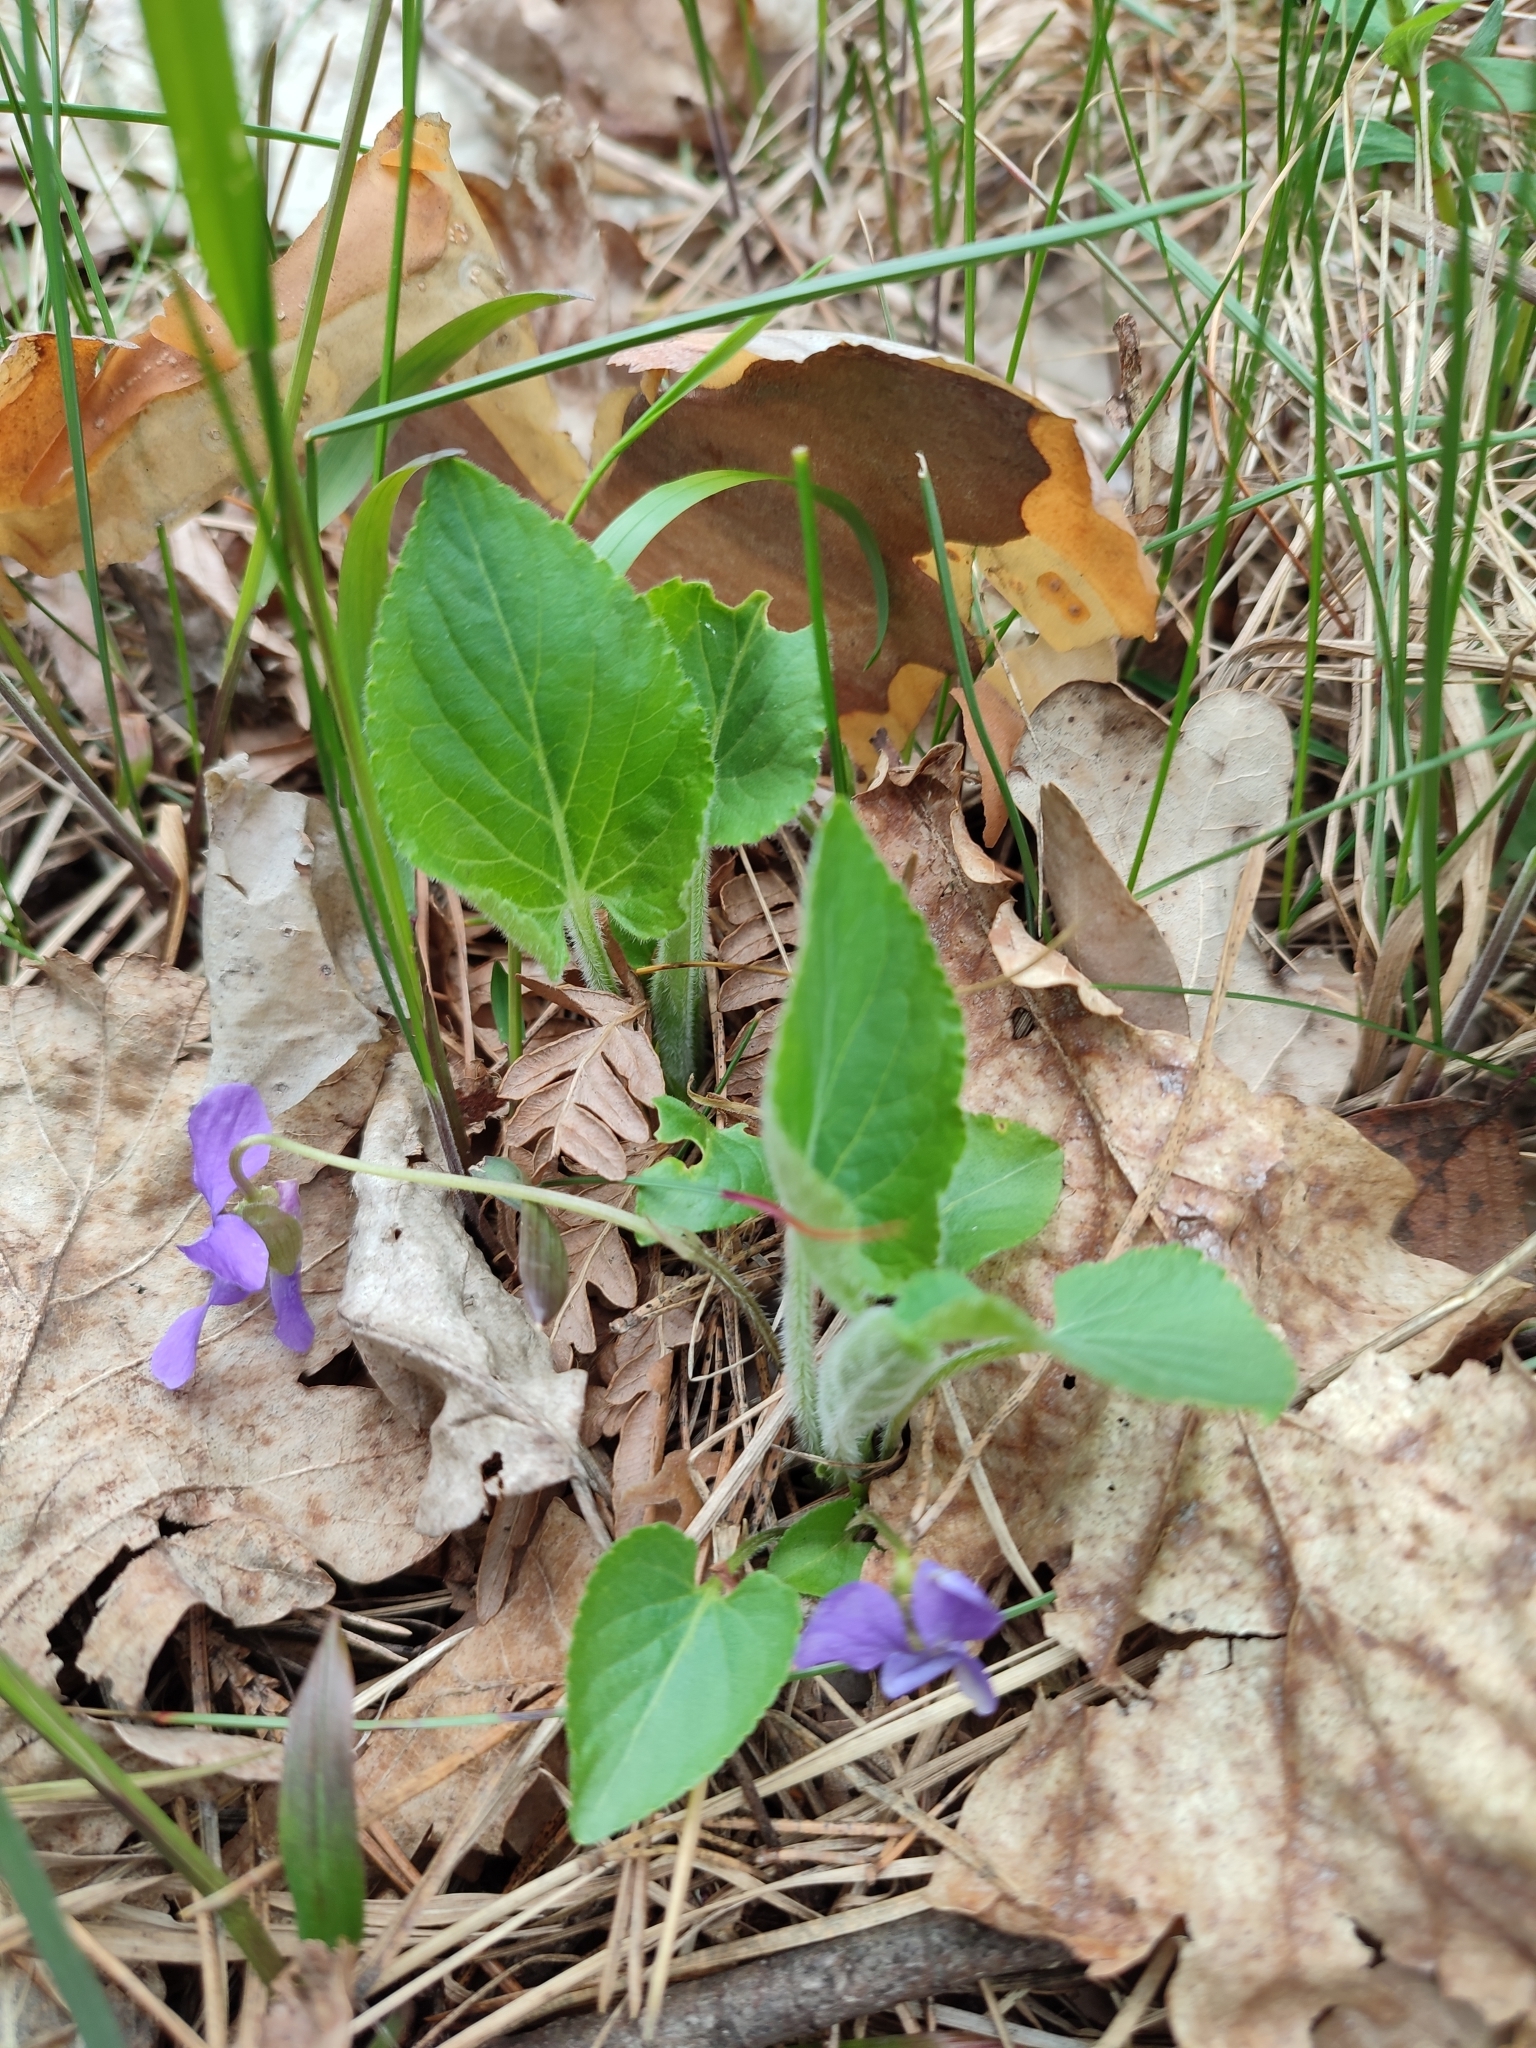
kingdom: Plantae
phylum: Tracheophyta
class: Magnoliopsida
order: Malpighiales
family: Violaceae
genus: Viola
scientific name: Viola hirta
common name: Hairy violet
